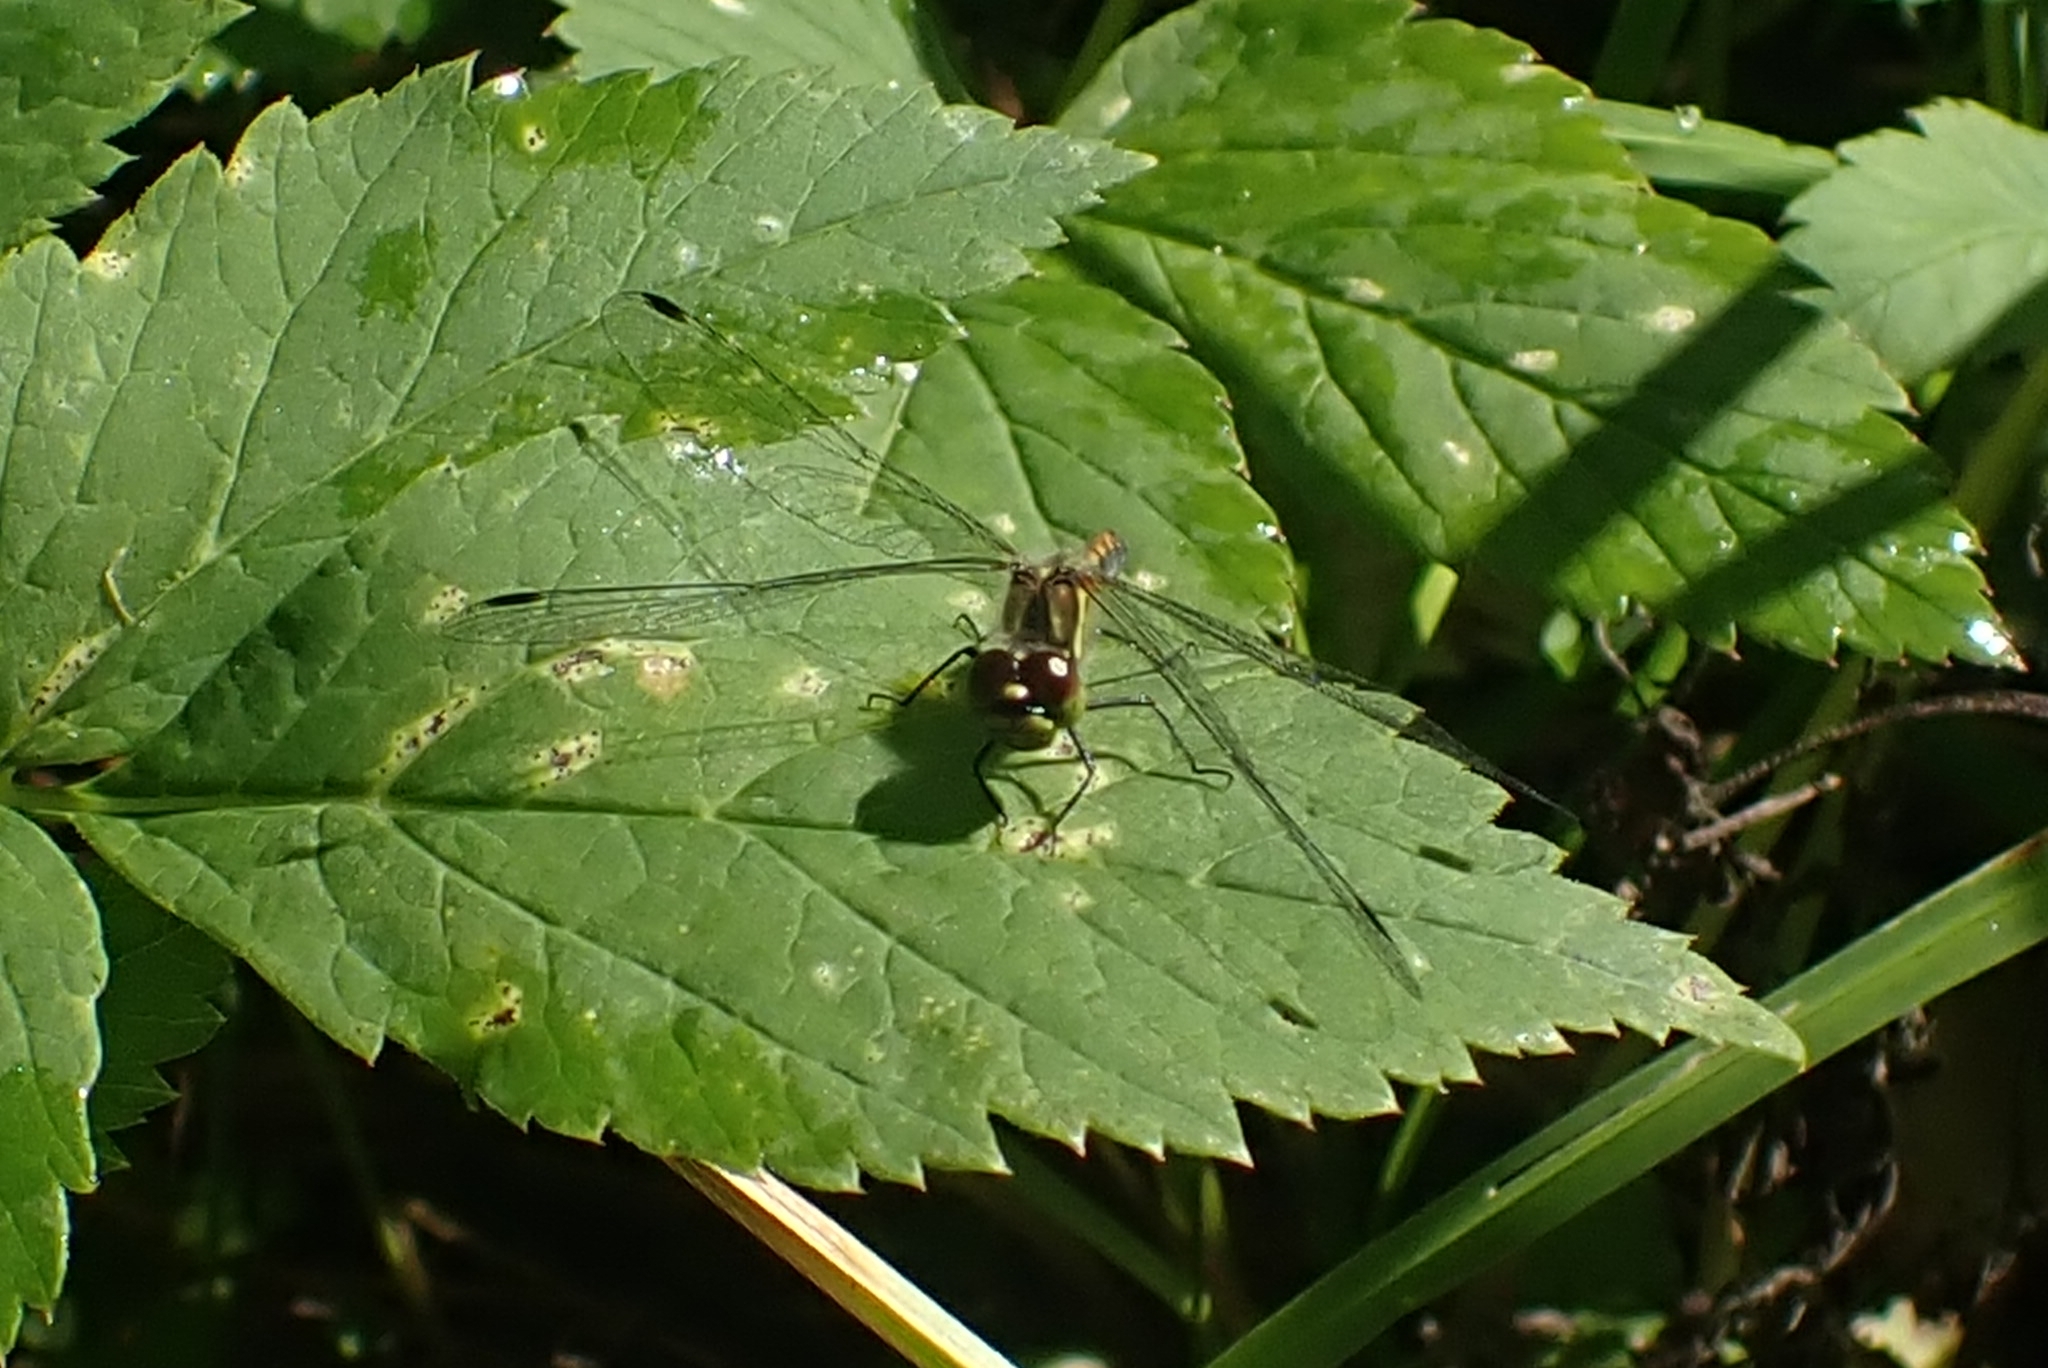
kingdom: Animalia
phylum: Arthropoda
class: Insecta
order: Odonata
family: Libellulidae
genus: Sympetrum
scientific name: Sympetrum danae
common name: Black darter
